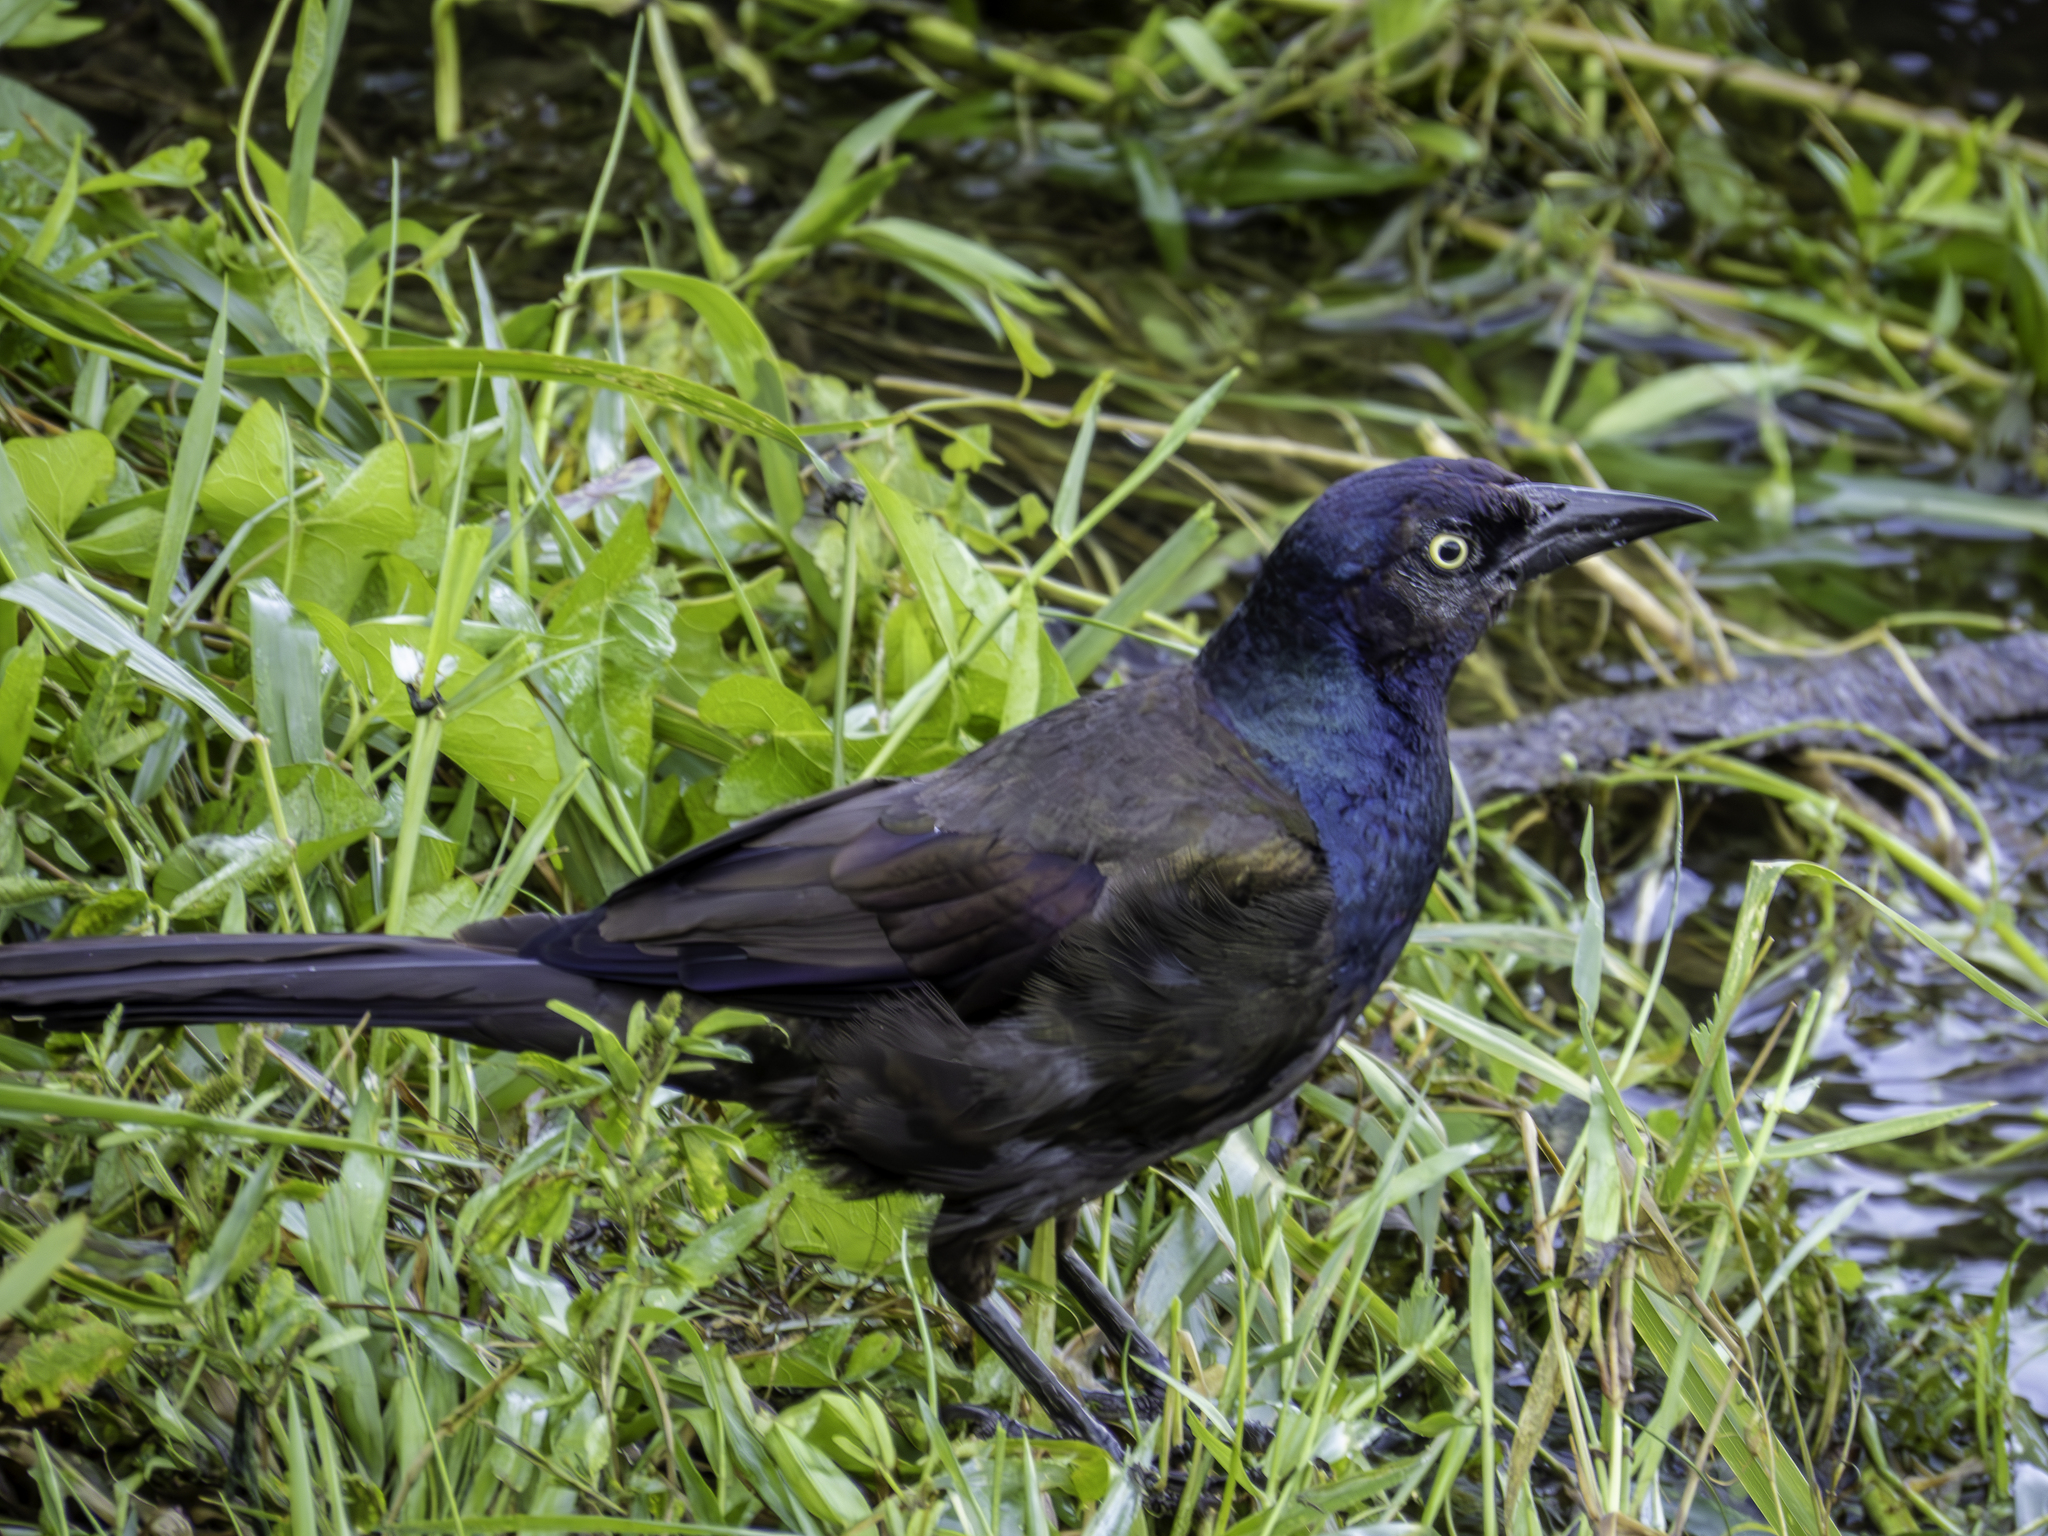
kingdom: Animalia
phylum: Chordata
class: Aves
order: Passeriformes
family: Icteridae
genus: Quiscalus
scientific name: Quiscalus quiscula
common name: Common grackle
